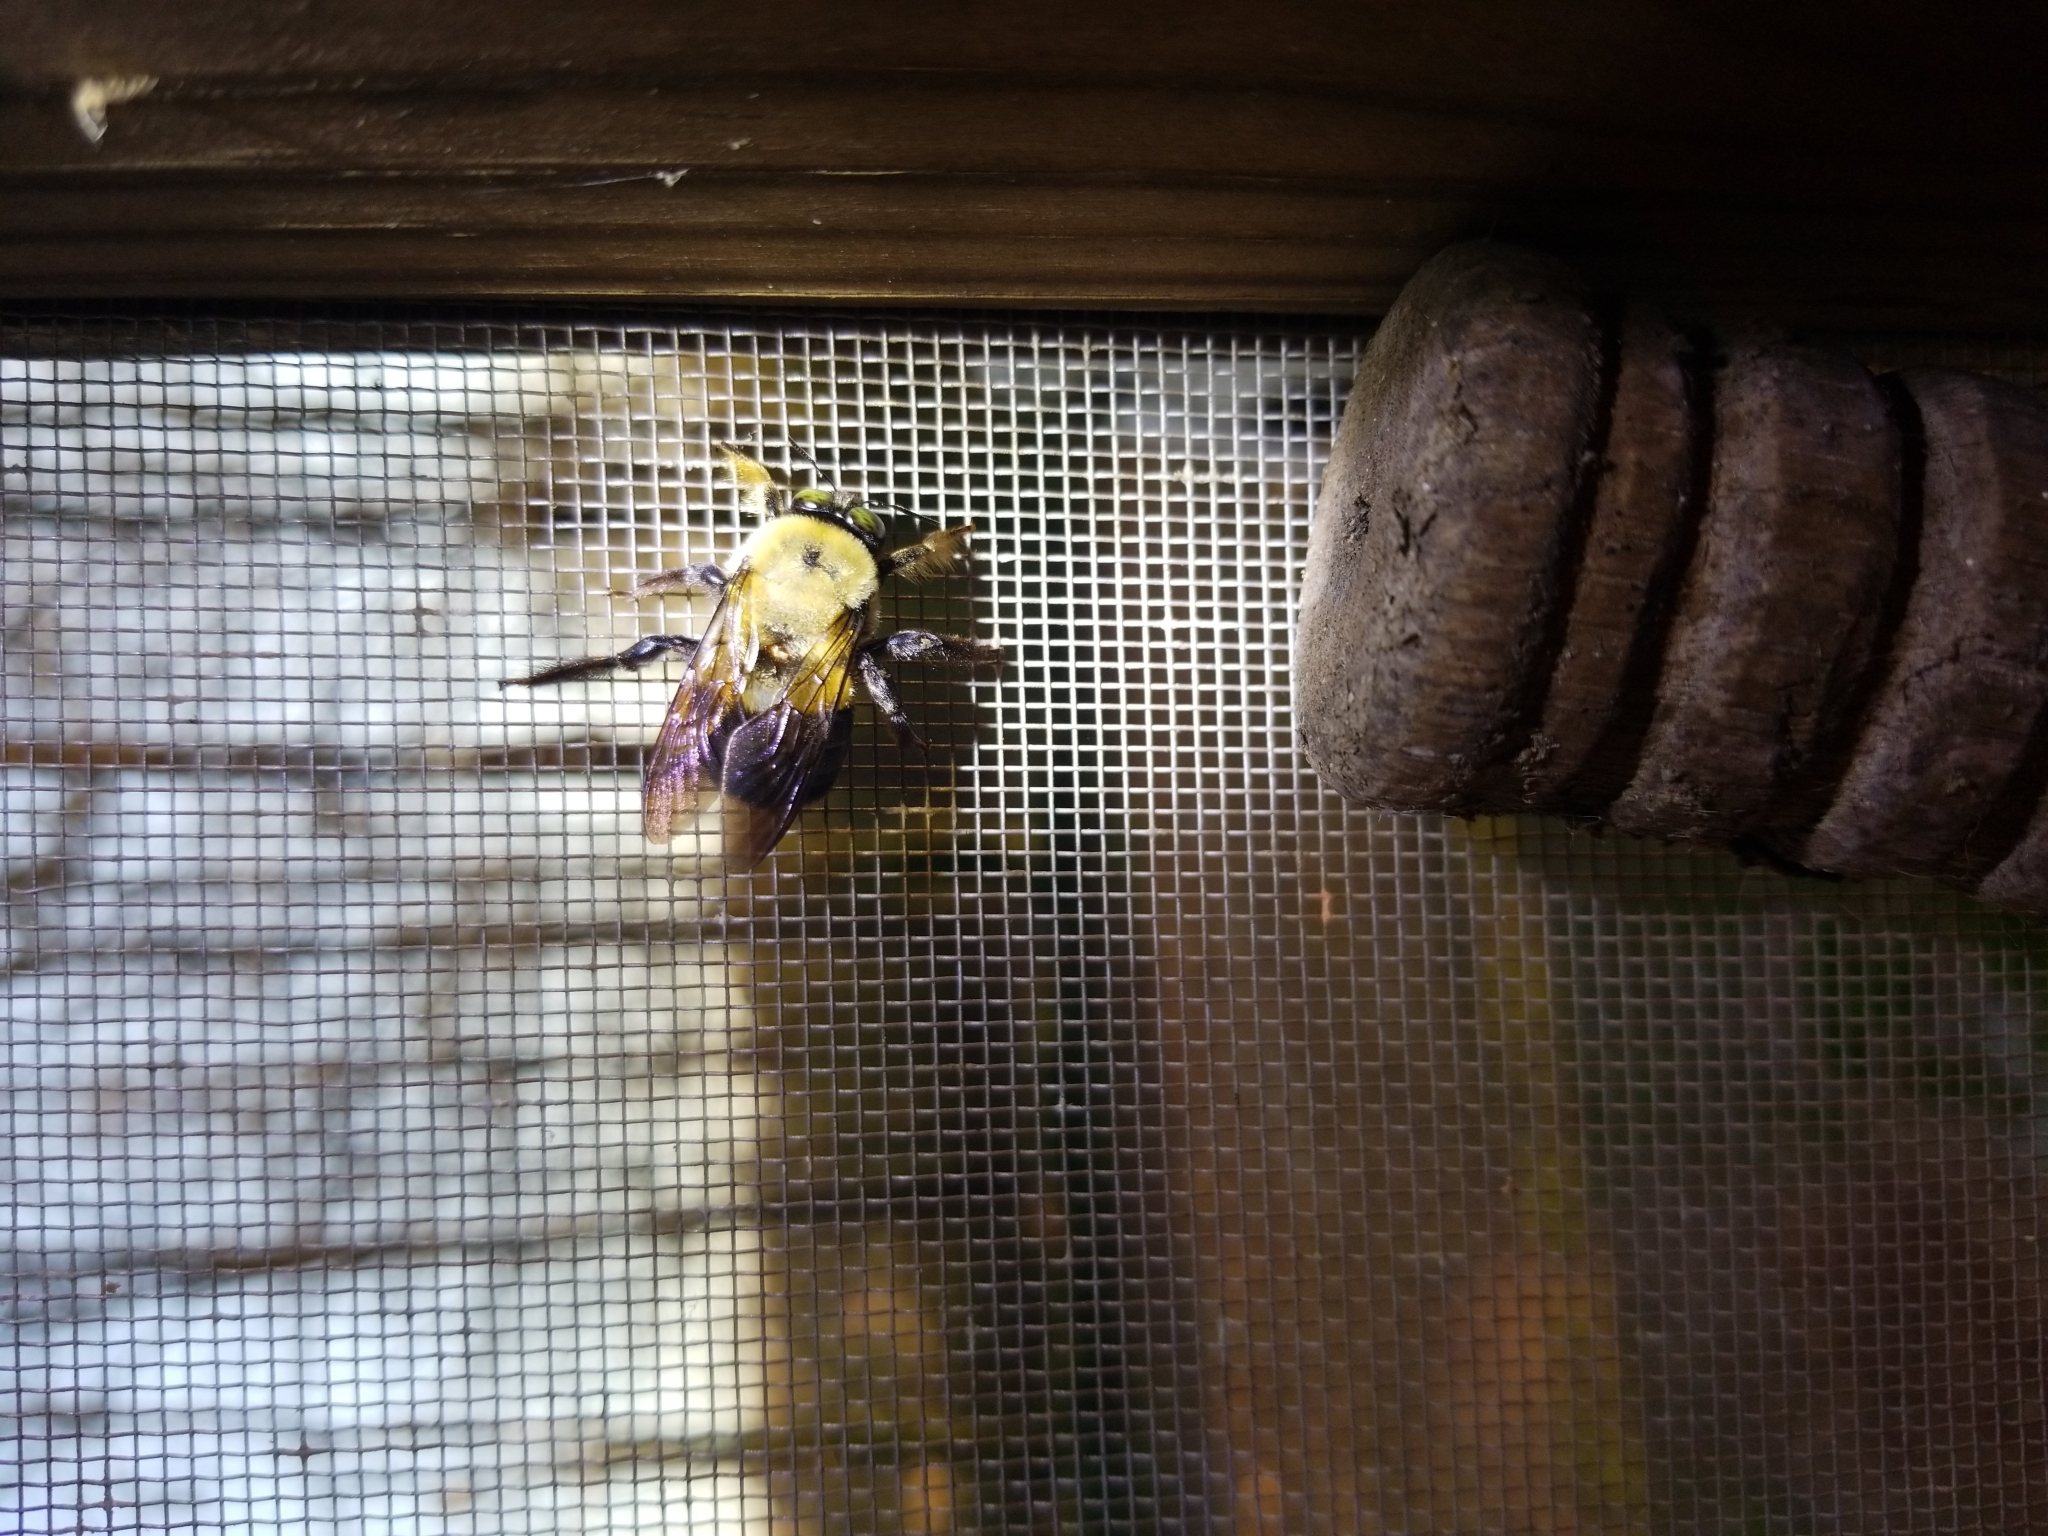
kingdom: Animalia
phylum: Arthropoda
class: Insecta
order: Hymenoptera
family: Apidae
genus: Xylocopa
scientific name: Xylocopa virginica
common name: Carpenter bee
